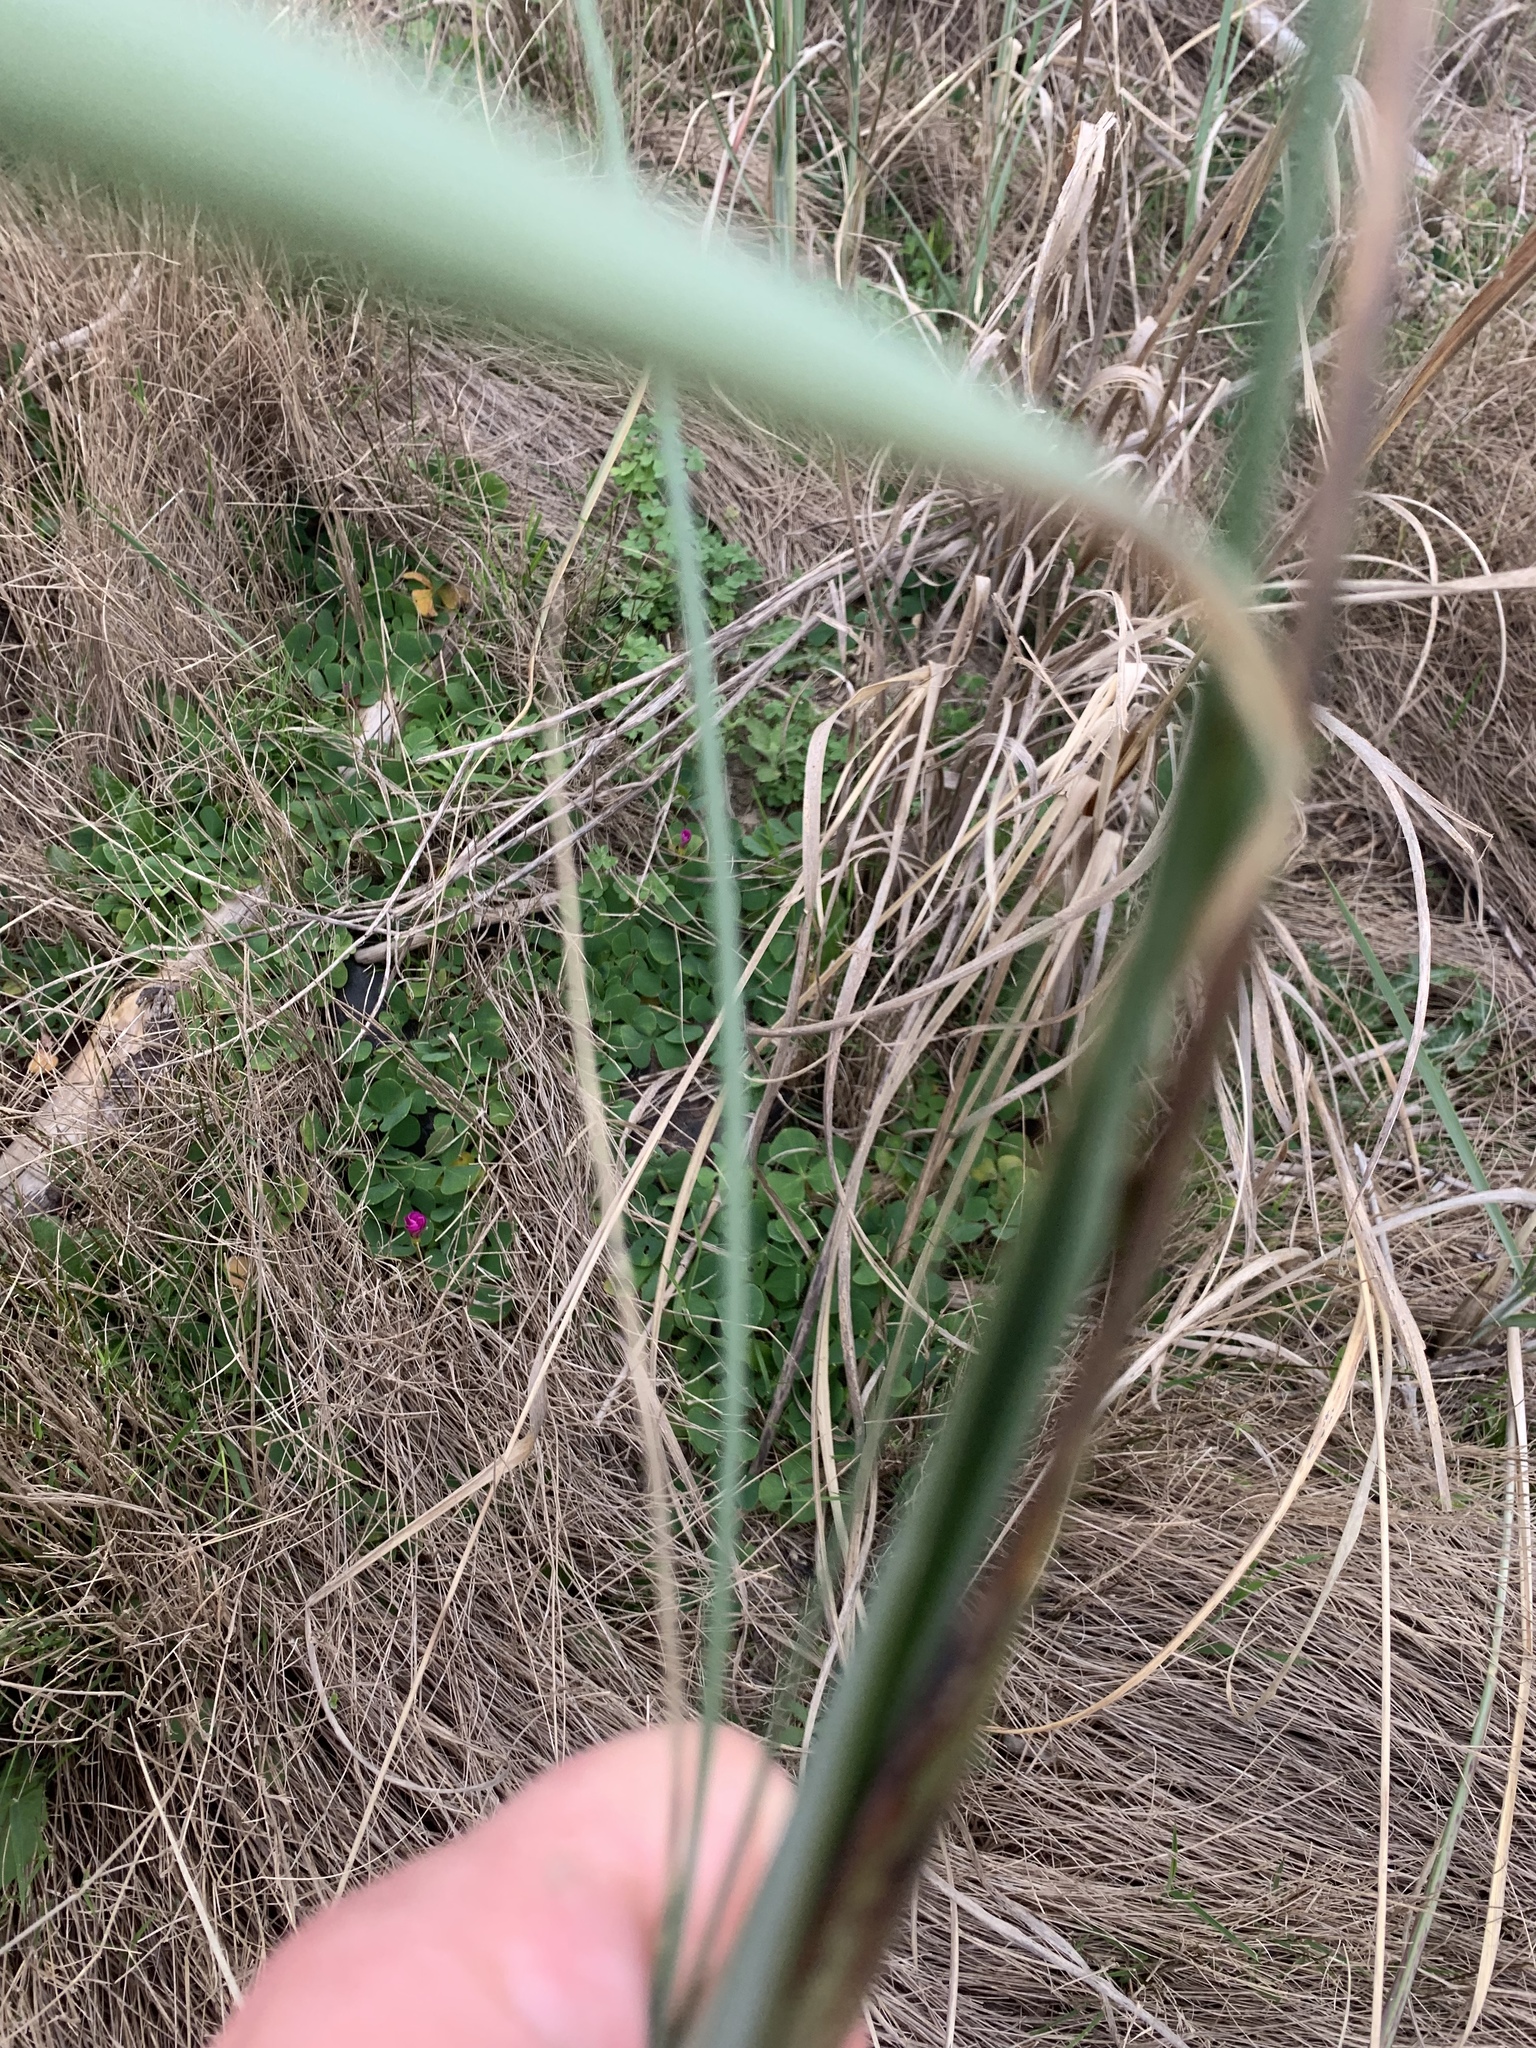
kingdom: Plantae
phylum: Tracheophyta
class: Liliopsida
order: Poales
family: Poaceae
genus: Cenchrus
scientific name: Cenchrus caudatus
